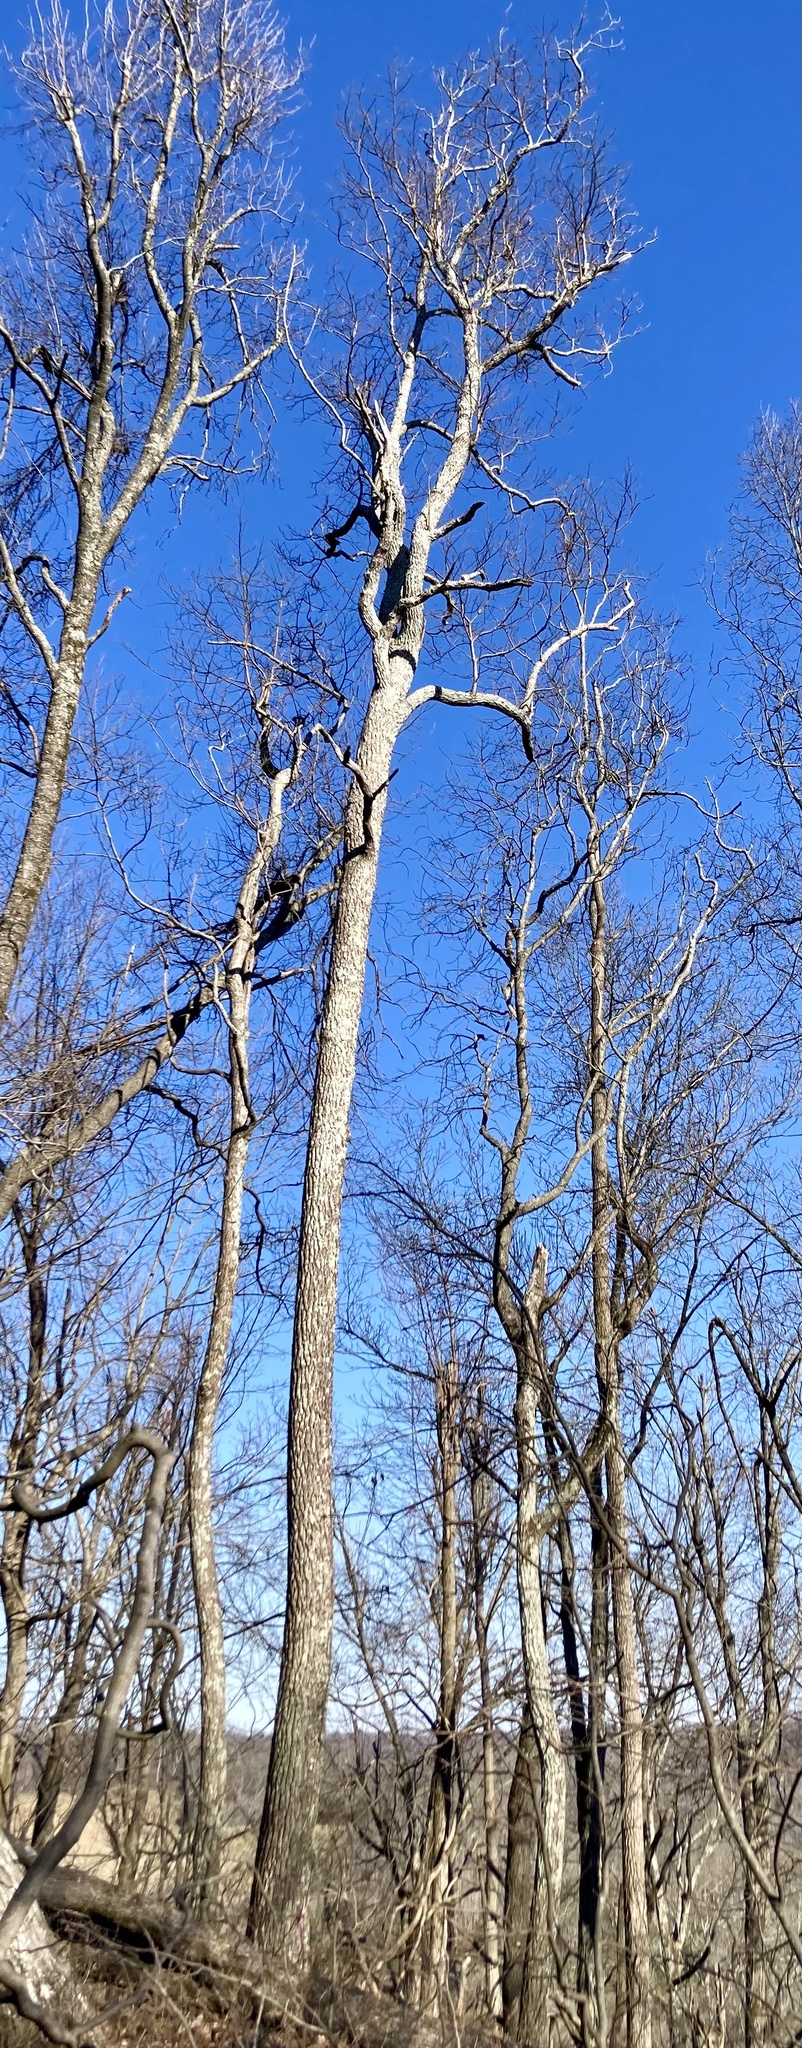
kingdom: Plantae
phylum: Tracheophyta
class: Magnoliopsida
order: Laurales
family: Lauraceae
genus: Sassafras
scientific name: Sassafras albidum
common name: Sassafras
